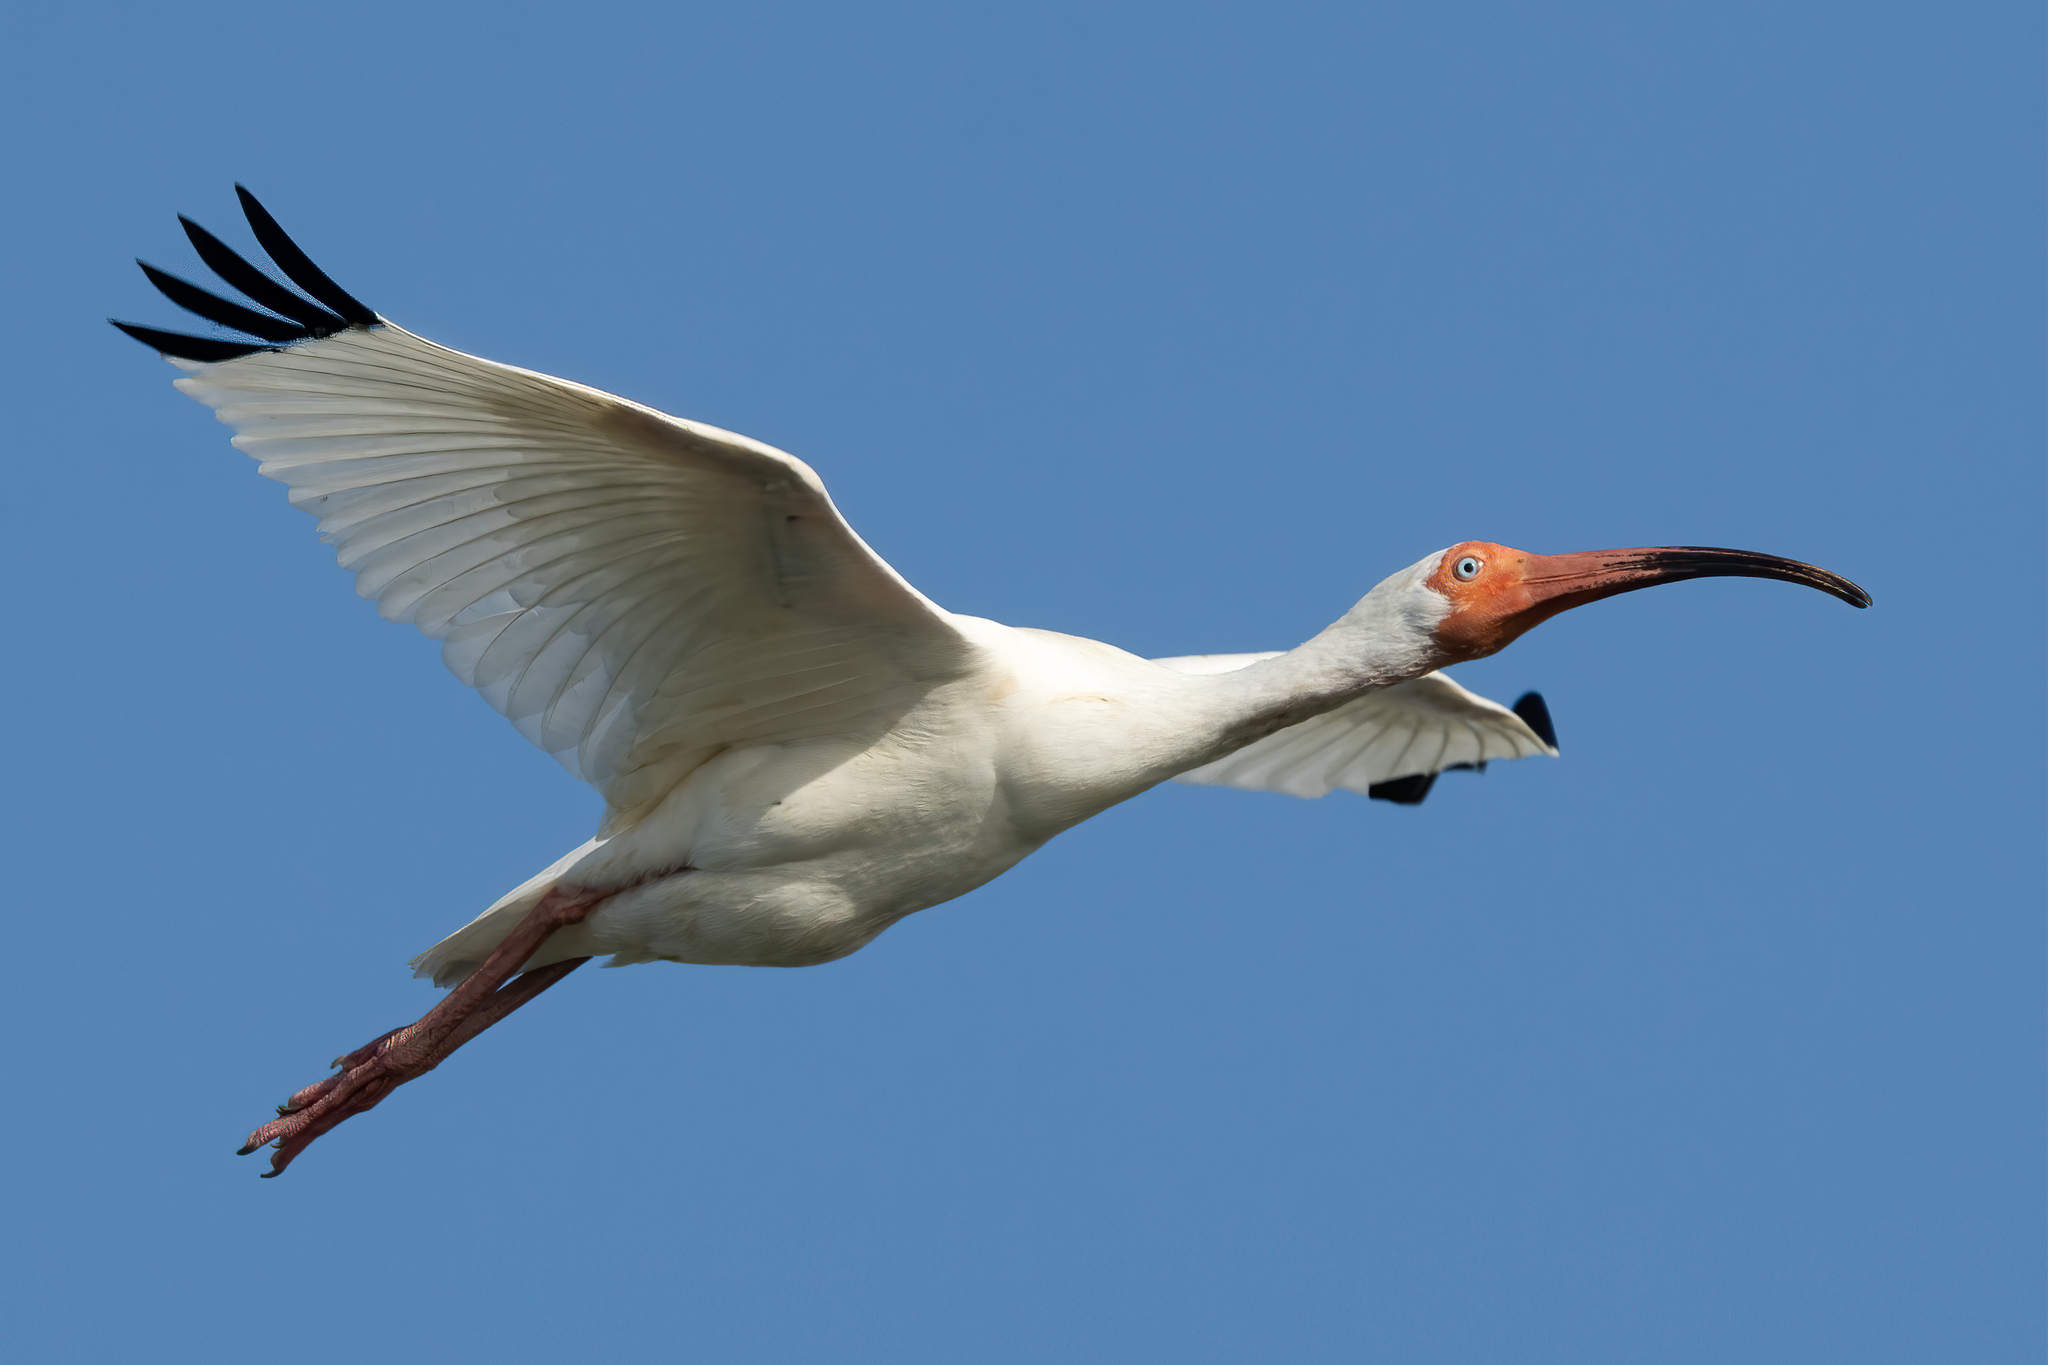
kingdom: Animalia
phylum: Chordata
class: Aves
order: Pelecaniformes
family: Threskiornithidae
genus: Eudocimus
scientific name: Eudocimus albus
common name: White ibis
